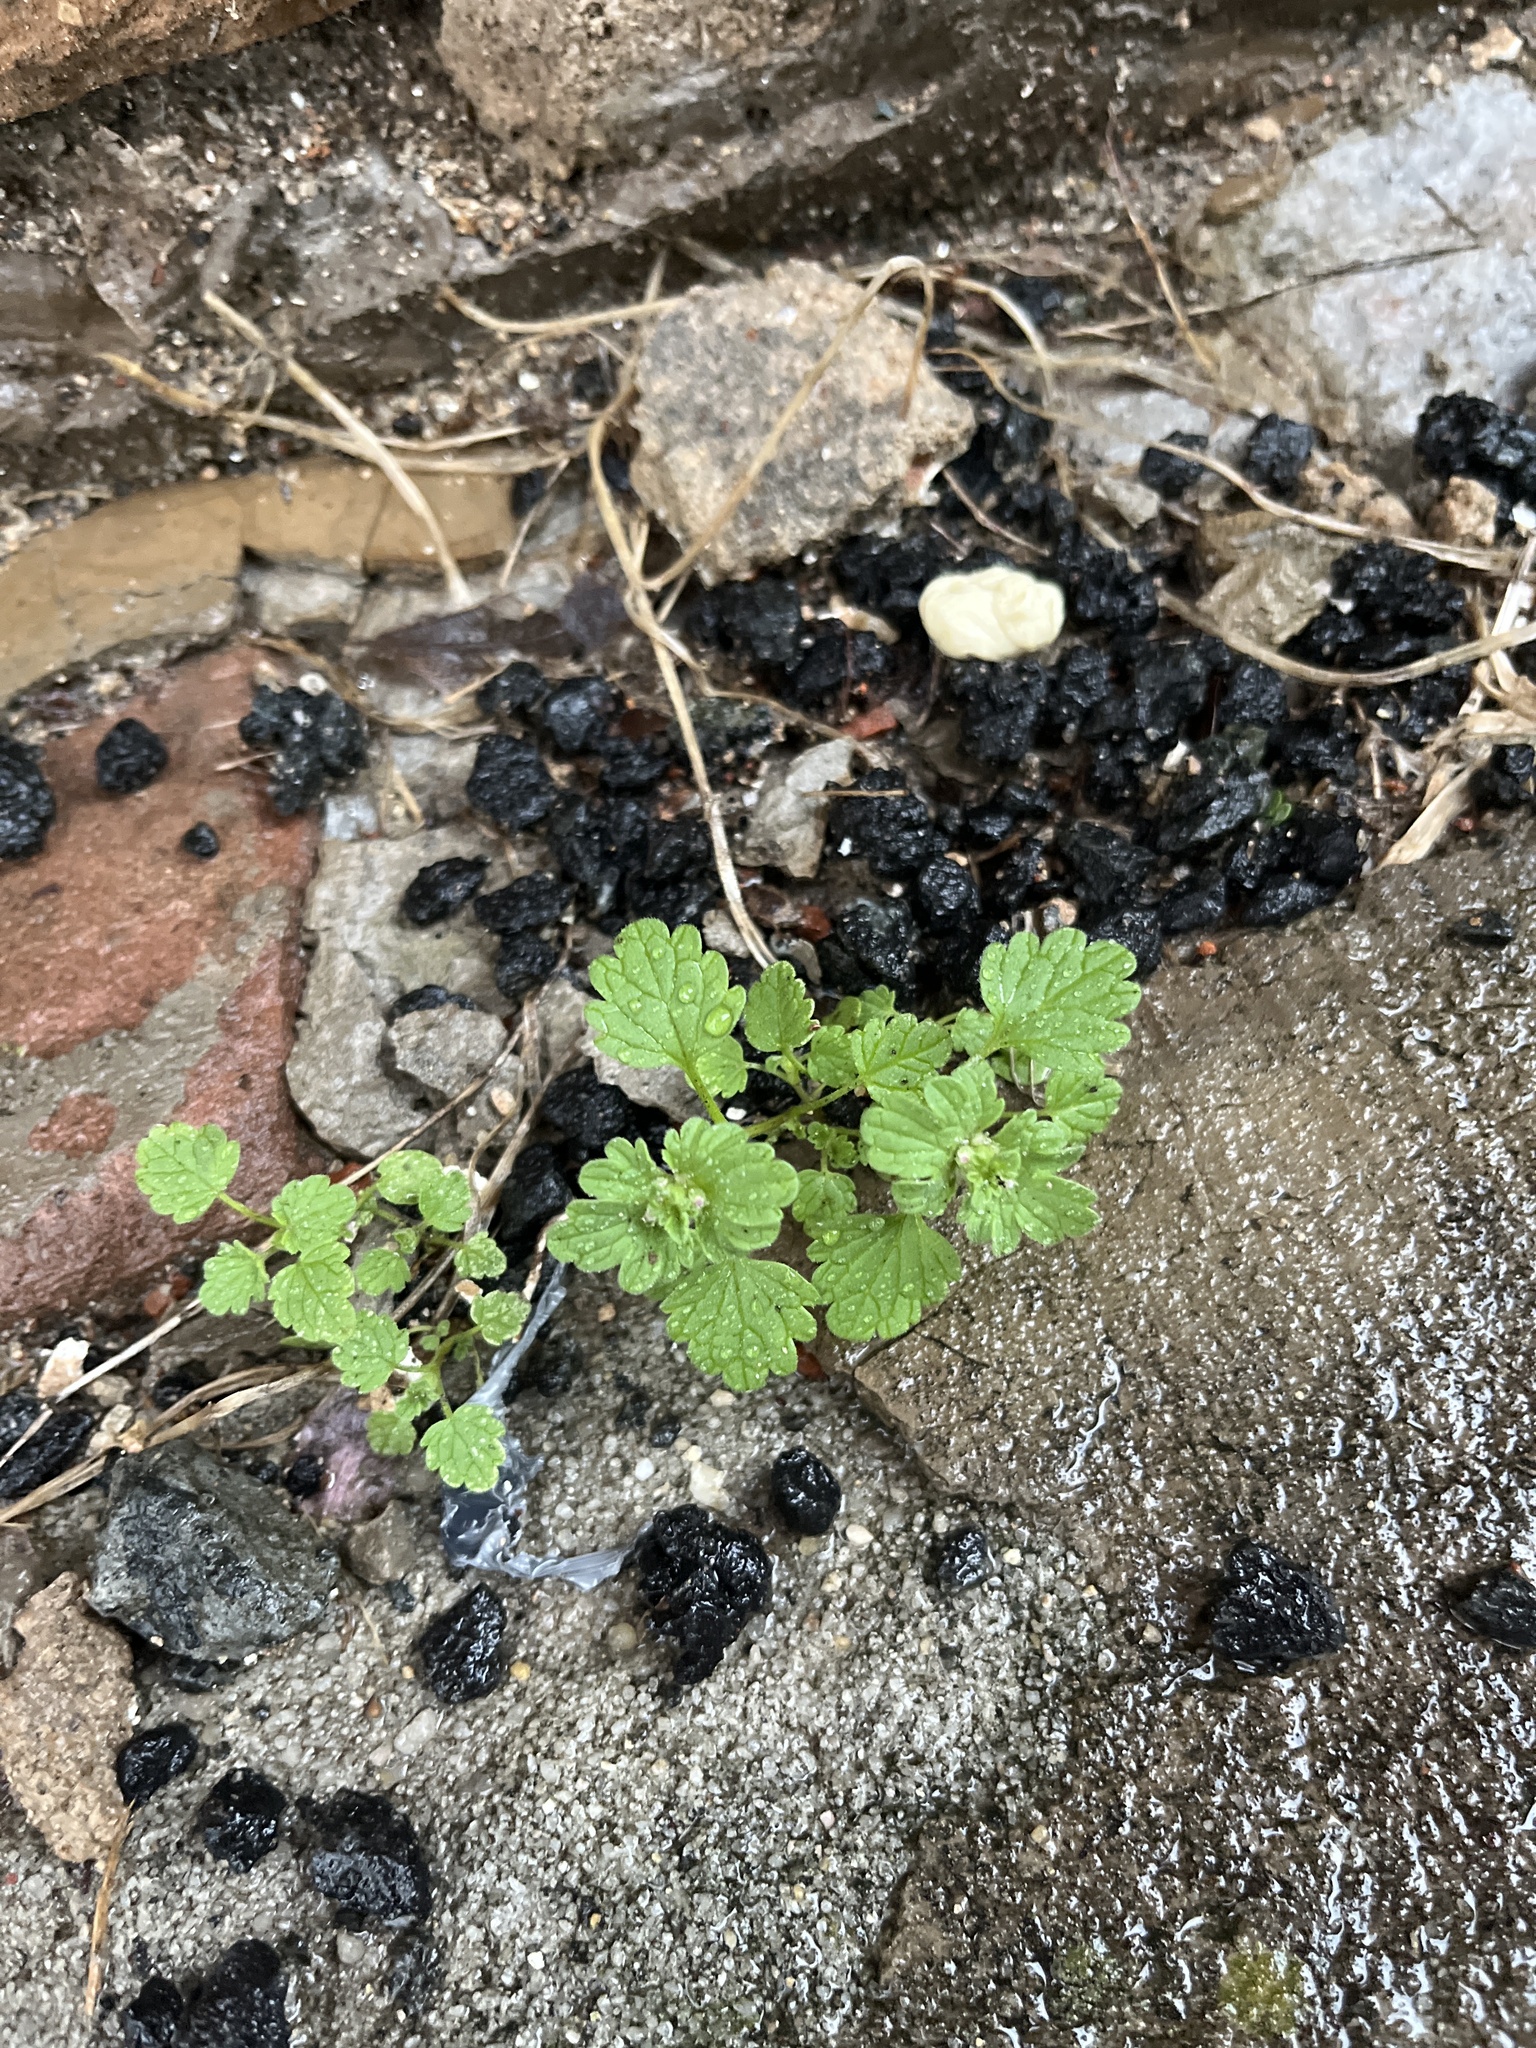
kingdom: Plantae
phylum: Tracheophyta
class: Magnoliopsida
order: Lamiales
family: Lamiaceae
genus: Lamium
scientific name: Lamium amplexicaule
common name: Henbit dead-nettle
